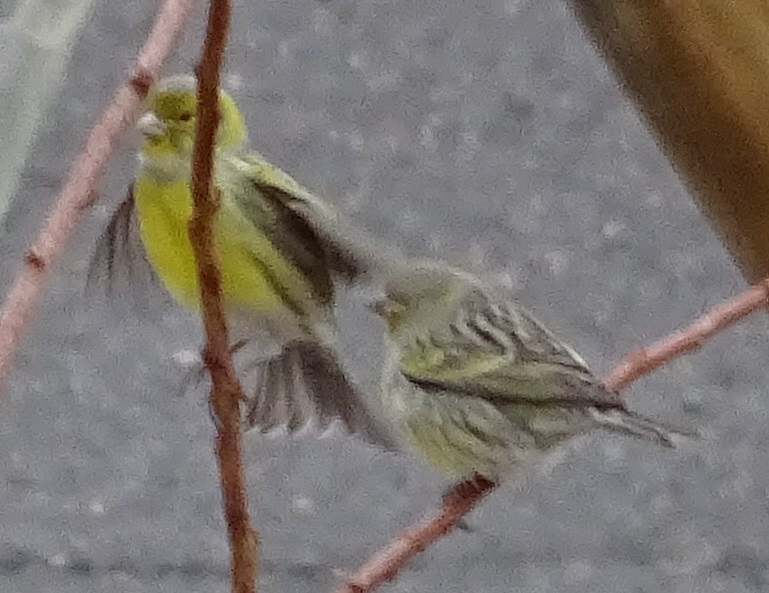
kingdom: Animalia
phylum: Chordata
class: Aves
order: Passeriformes
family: Fringillidae
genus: Serinus
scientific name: Serinus canaria
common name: Atlantic canary
